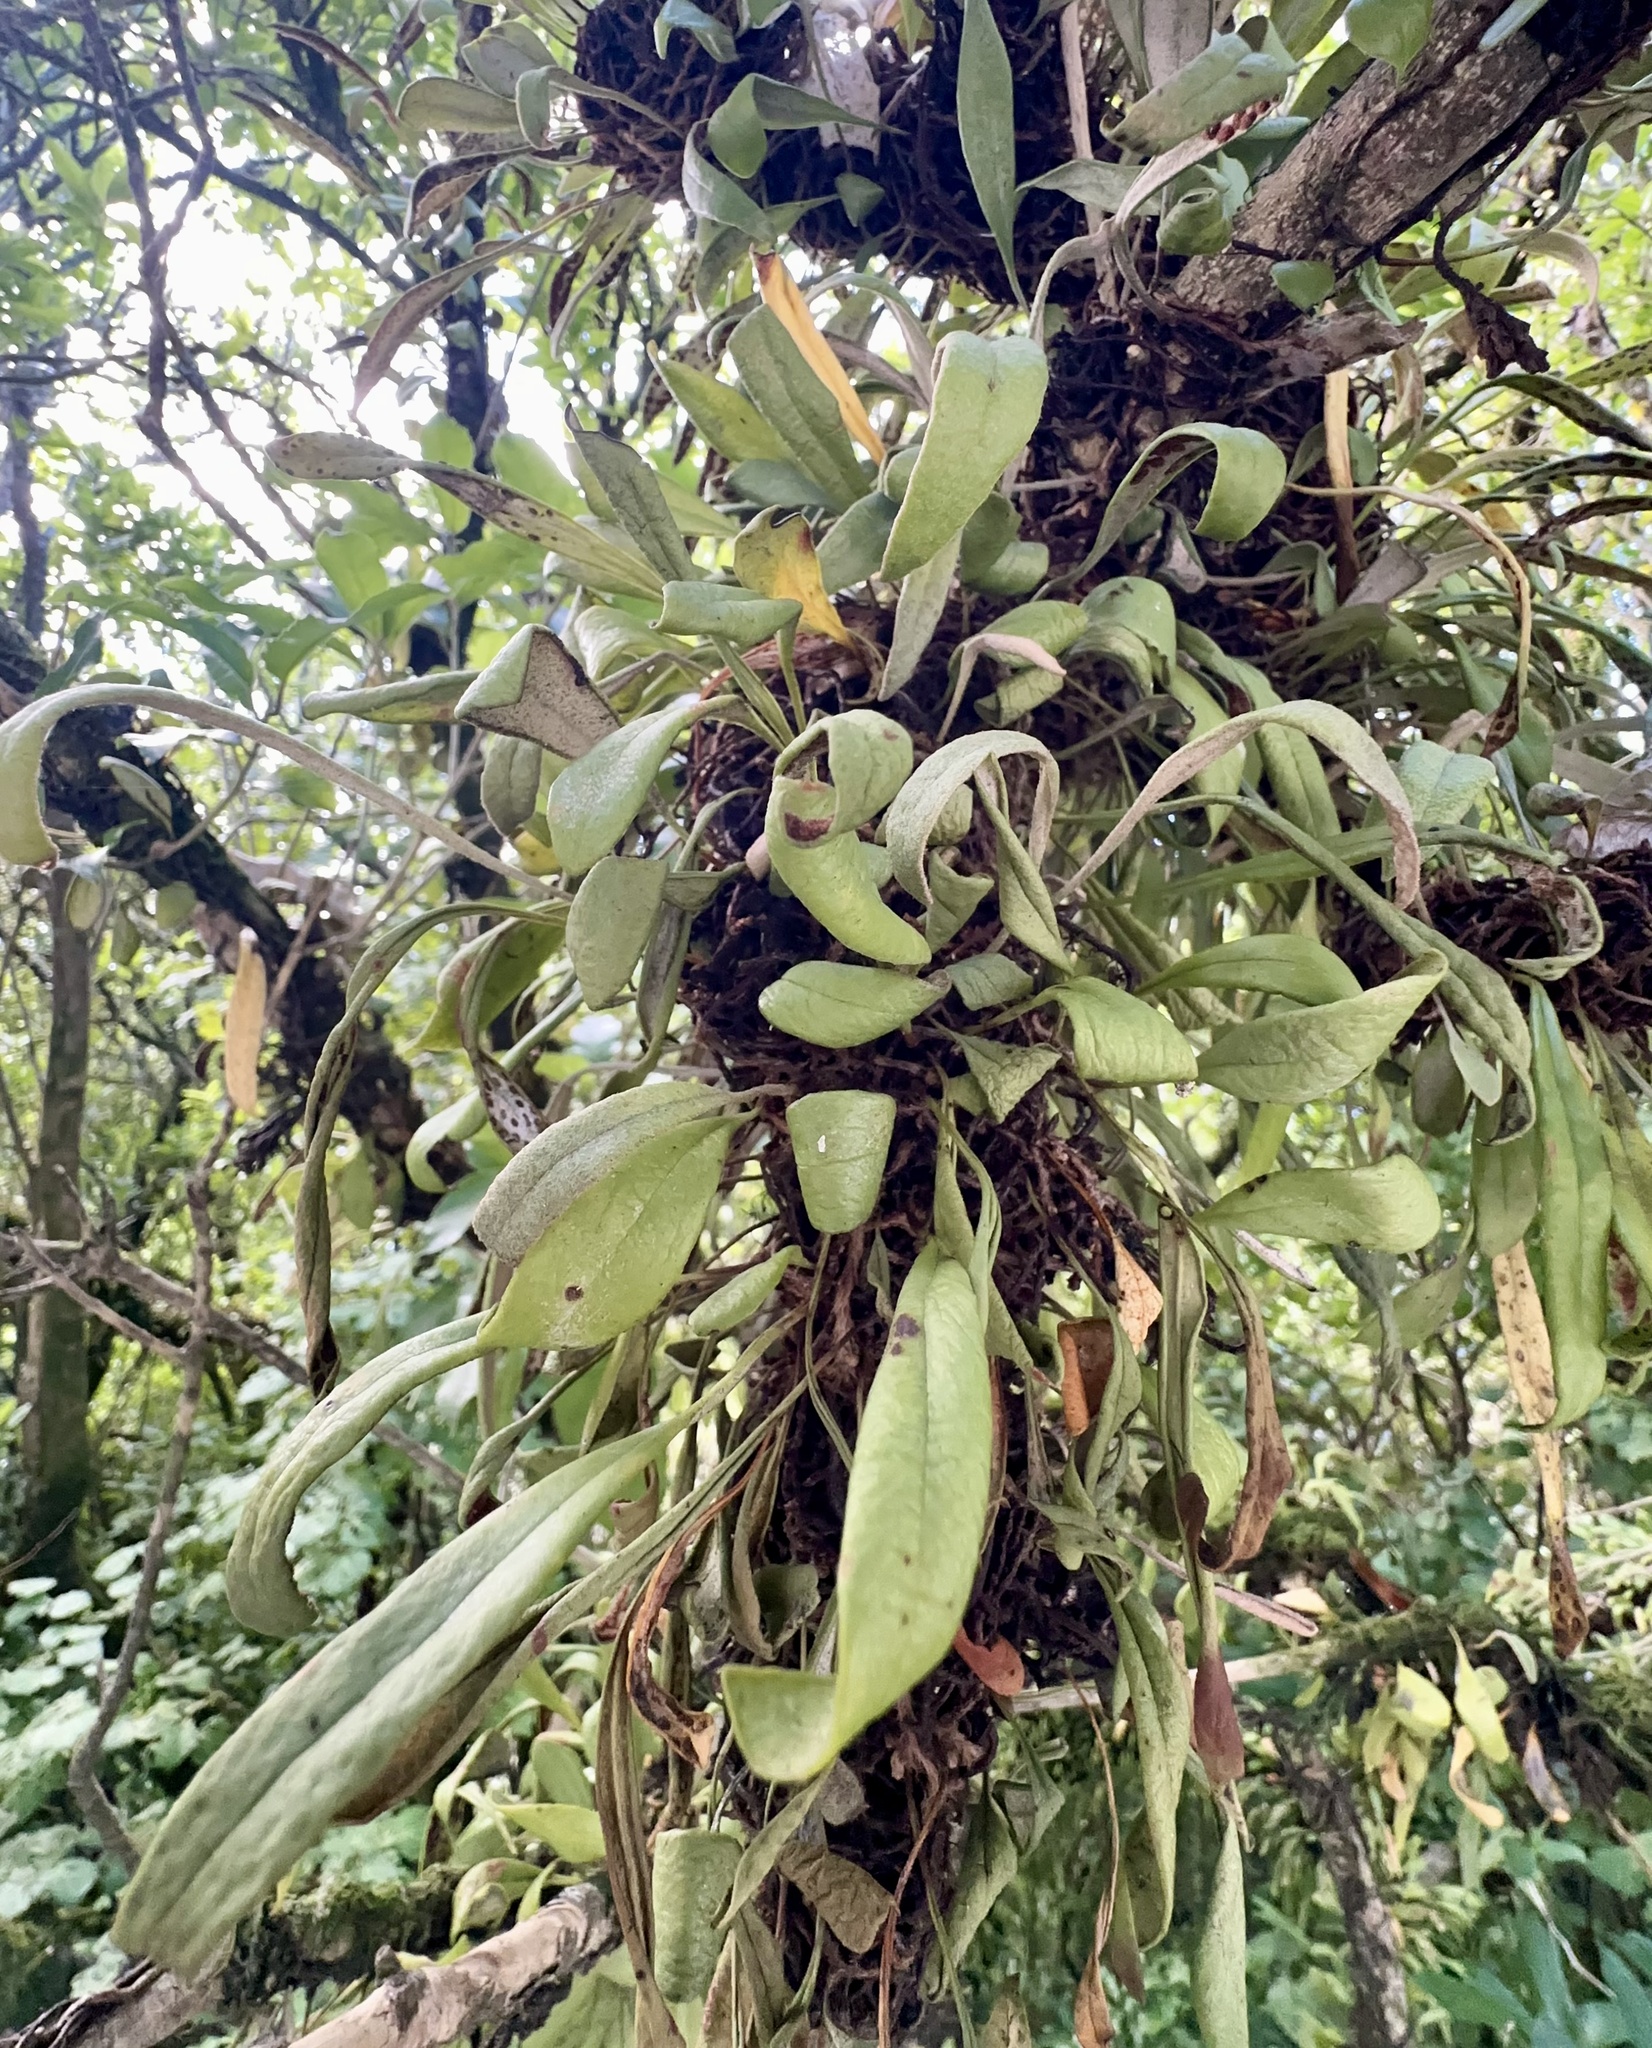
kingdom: Plantae
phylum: Tracheophyta
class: Polypodiopsida
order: Polypodiales
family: Polypodiaceae
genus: Pyrrosia
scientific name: Pyrrosia eleagnifolia
